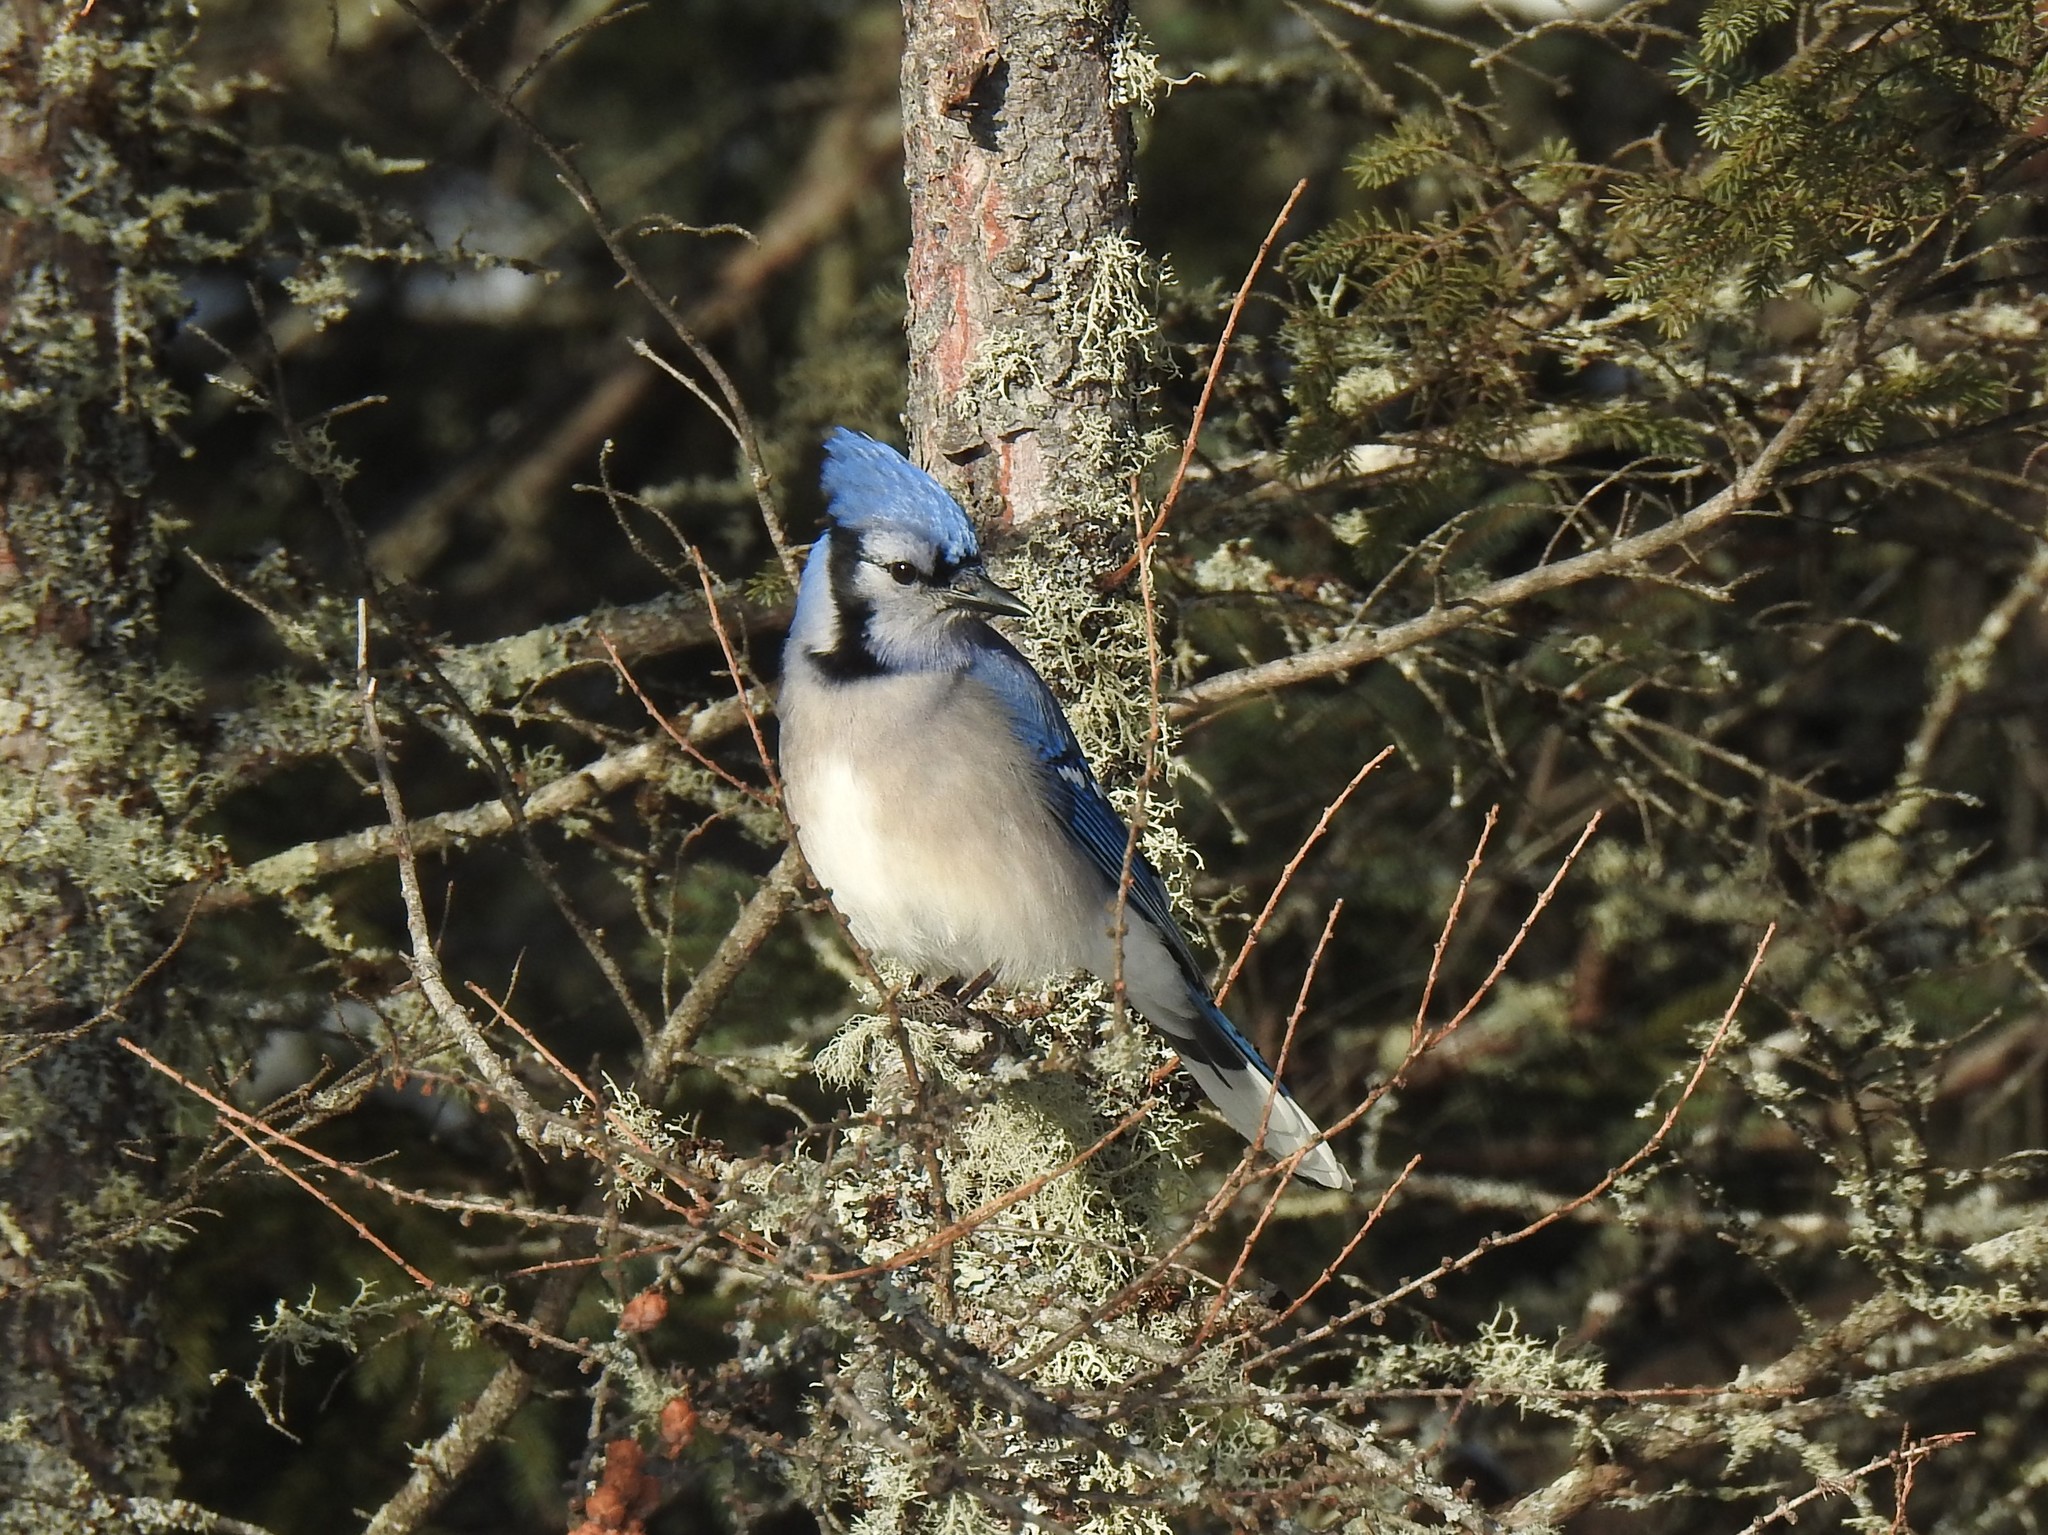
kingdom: Animalia
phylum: Chordata
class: Aves
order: Passeriformes
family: Corvidae
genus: Cyanocitta
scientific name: Cyanocitta cristata
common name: Blue jay
